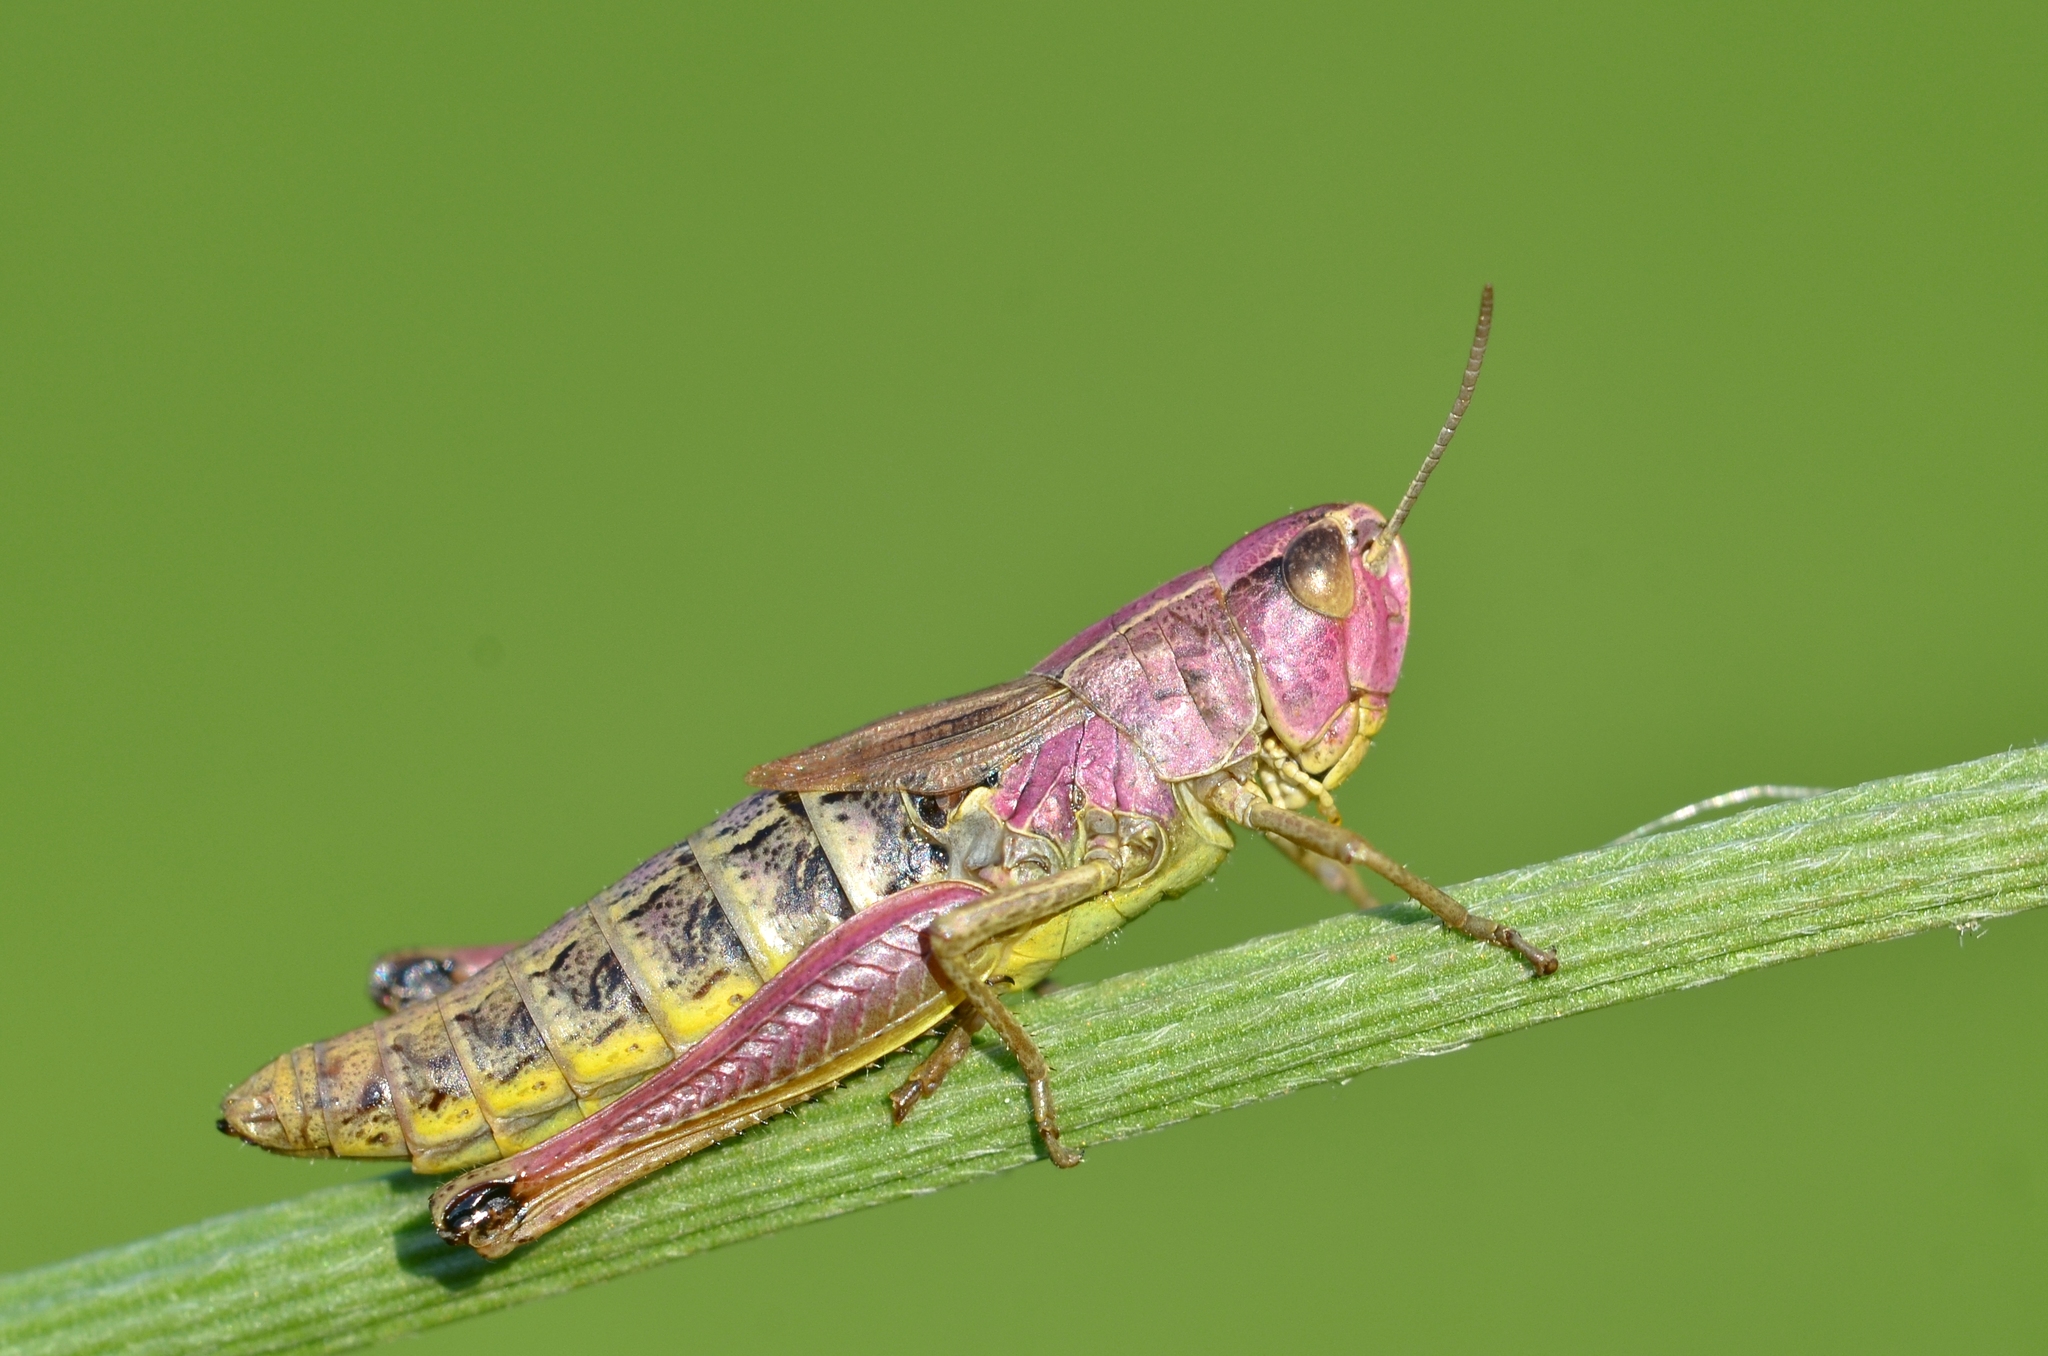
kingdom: Animalia
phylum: Arthropoda
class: Insecta
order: Orthoptera
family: Acrididae
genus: Pseudochorthippus
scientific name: Pseudochorthippus parallelus
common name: Meadow grasshopper
